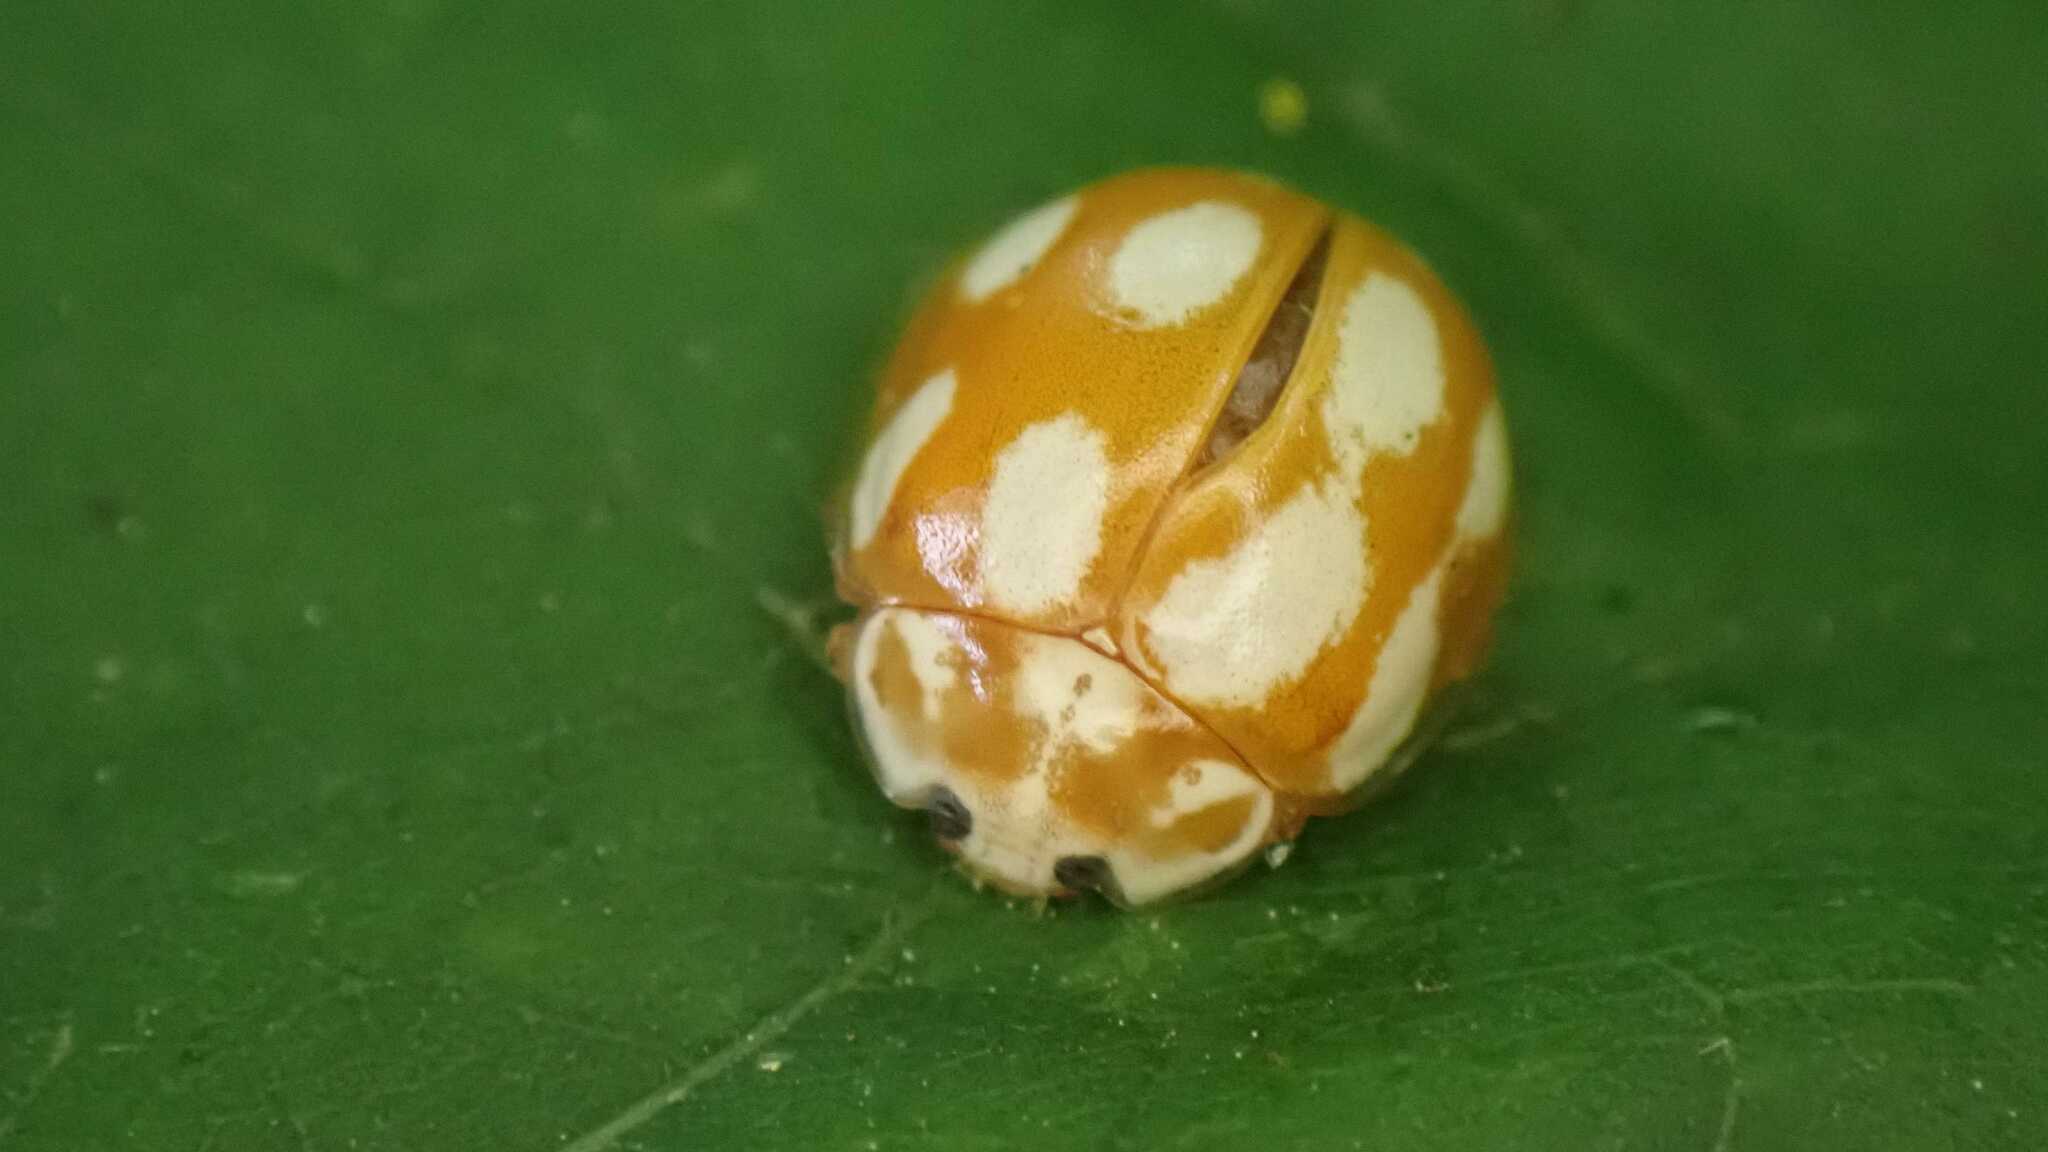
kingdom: Animalia
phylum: Arthropoda
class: Insecta
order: Coleoptera
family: Coccinellidae
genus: Calvia
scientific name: Calvia decemguttata
